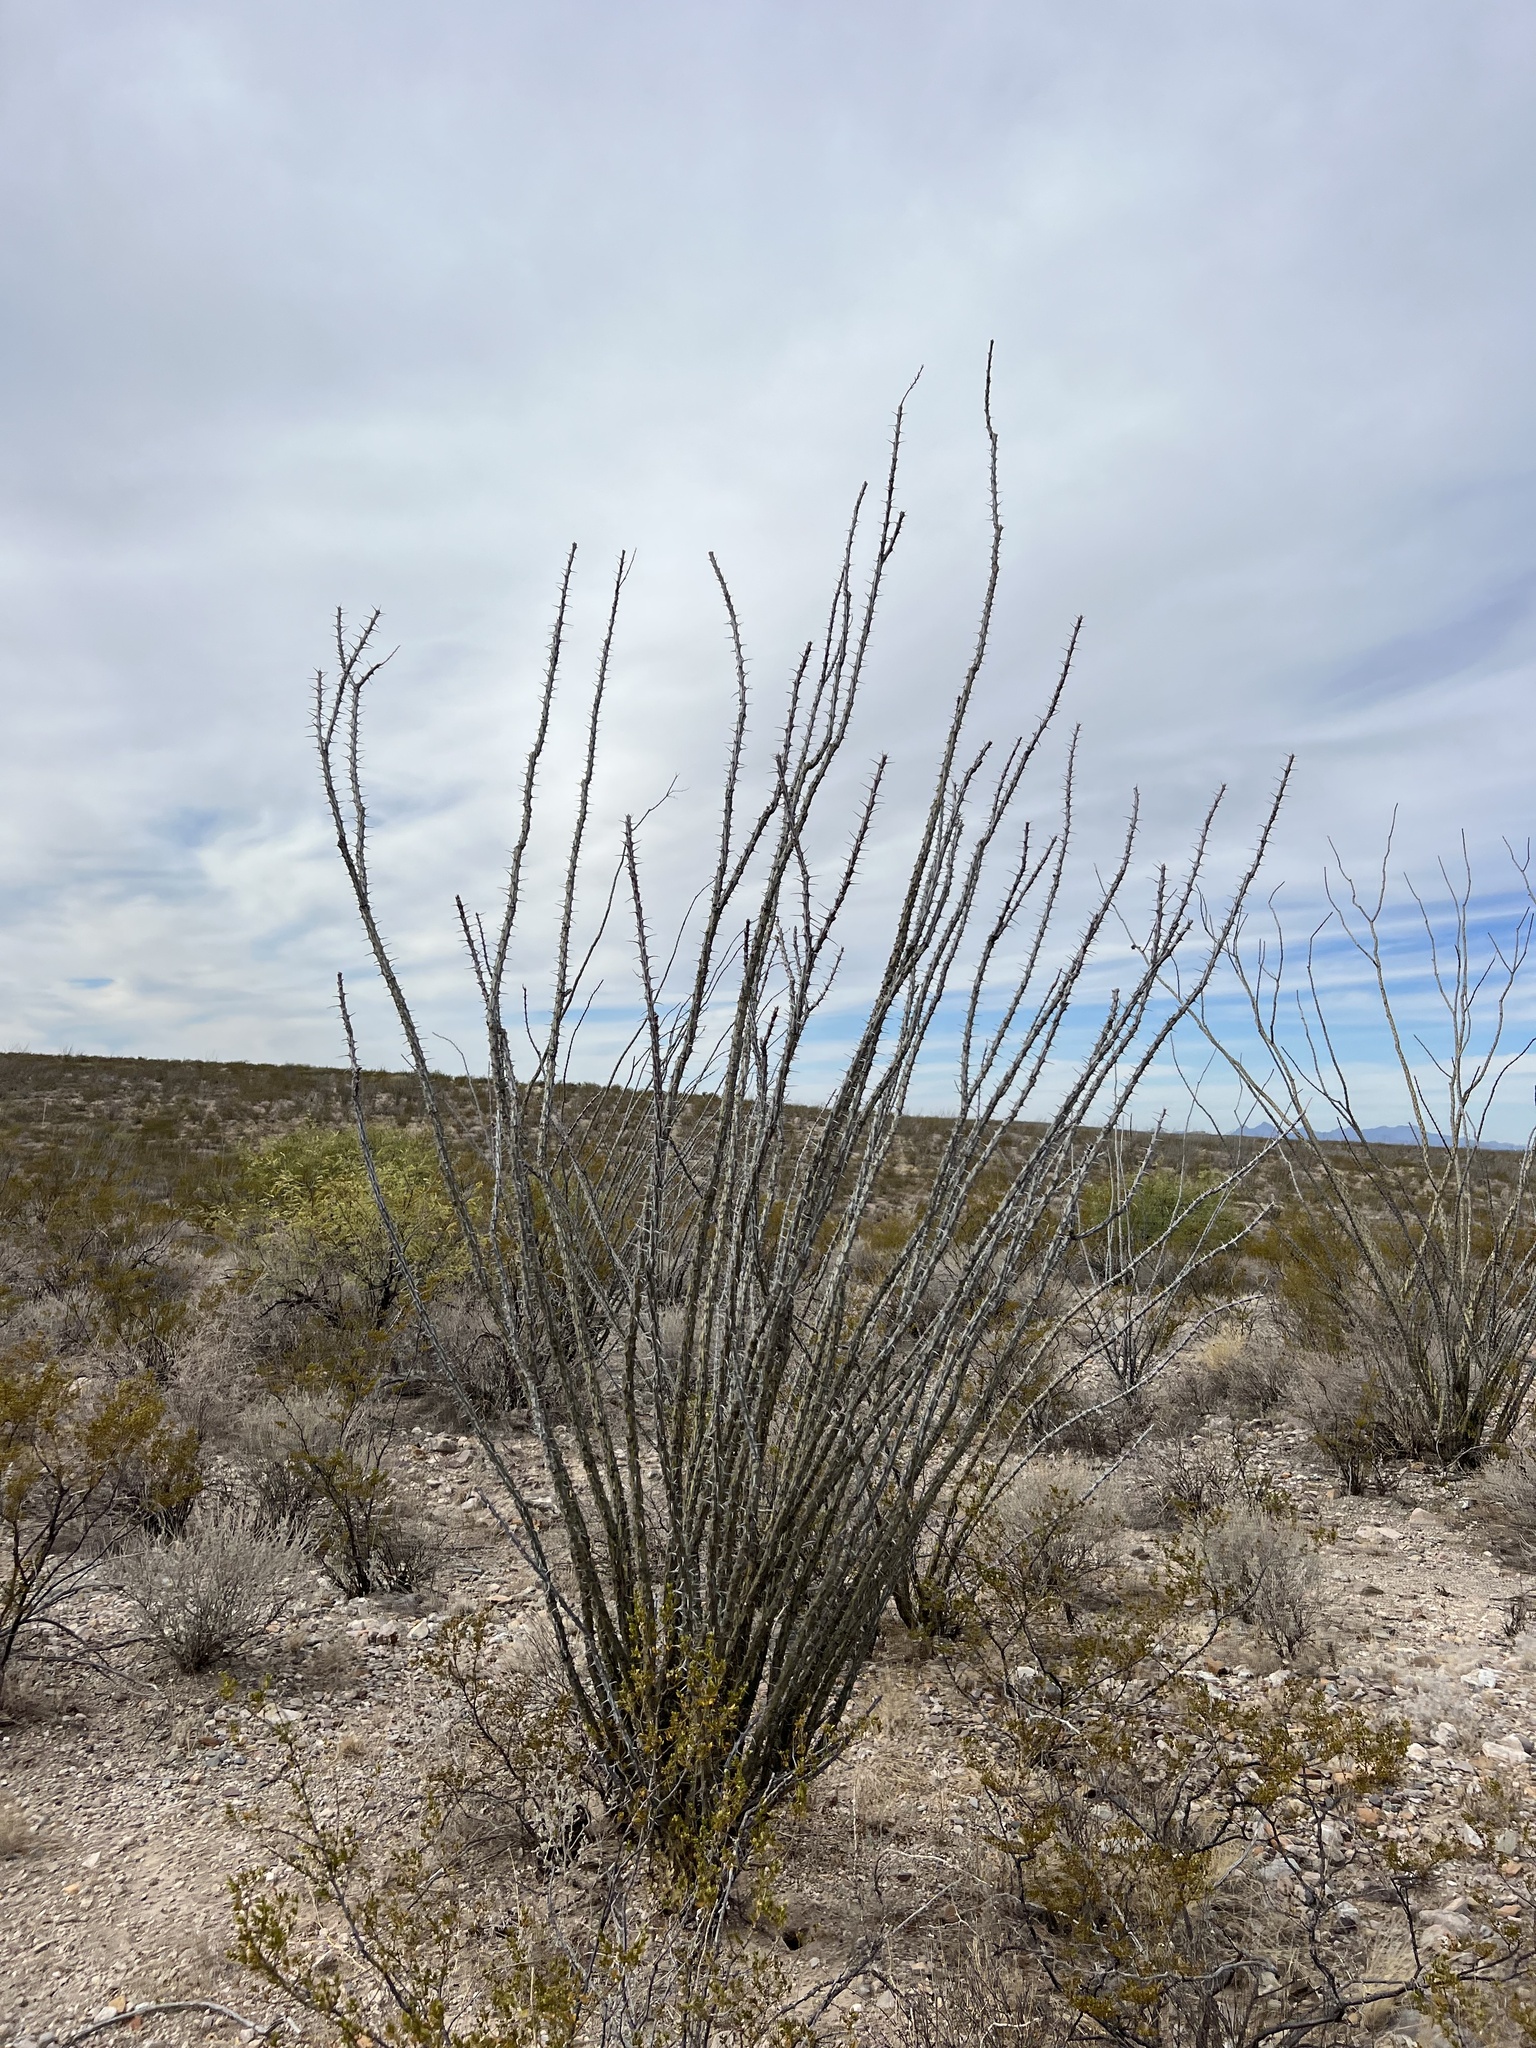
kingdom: Plantae
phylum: Tracheophyta
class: Magnoliopsida
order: Ericales
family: Fouquieriaceae
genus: Fouquieria
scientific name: Fouquieria splendens
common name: Vine-cactus
